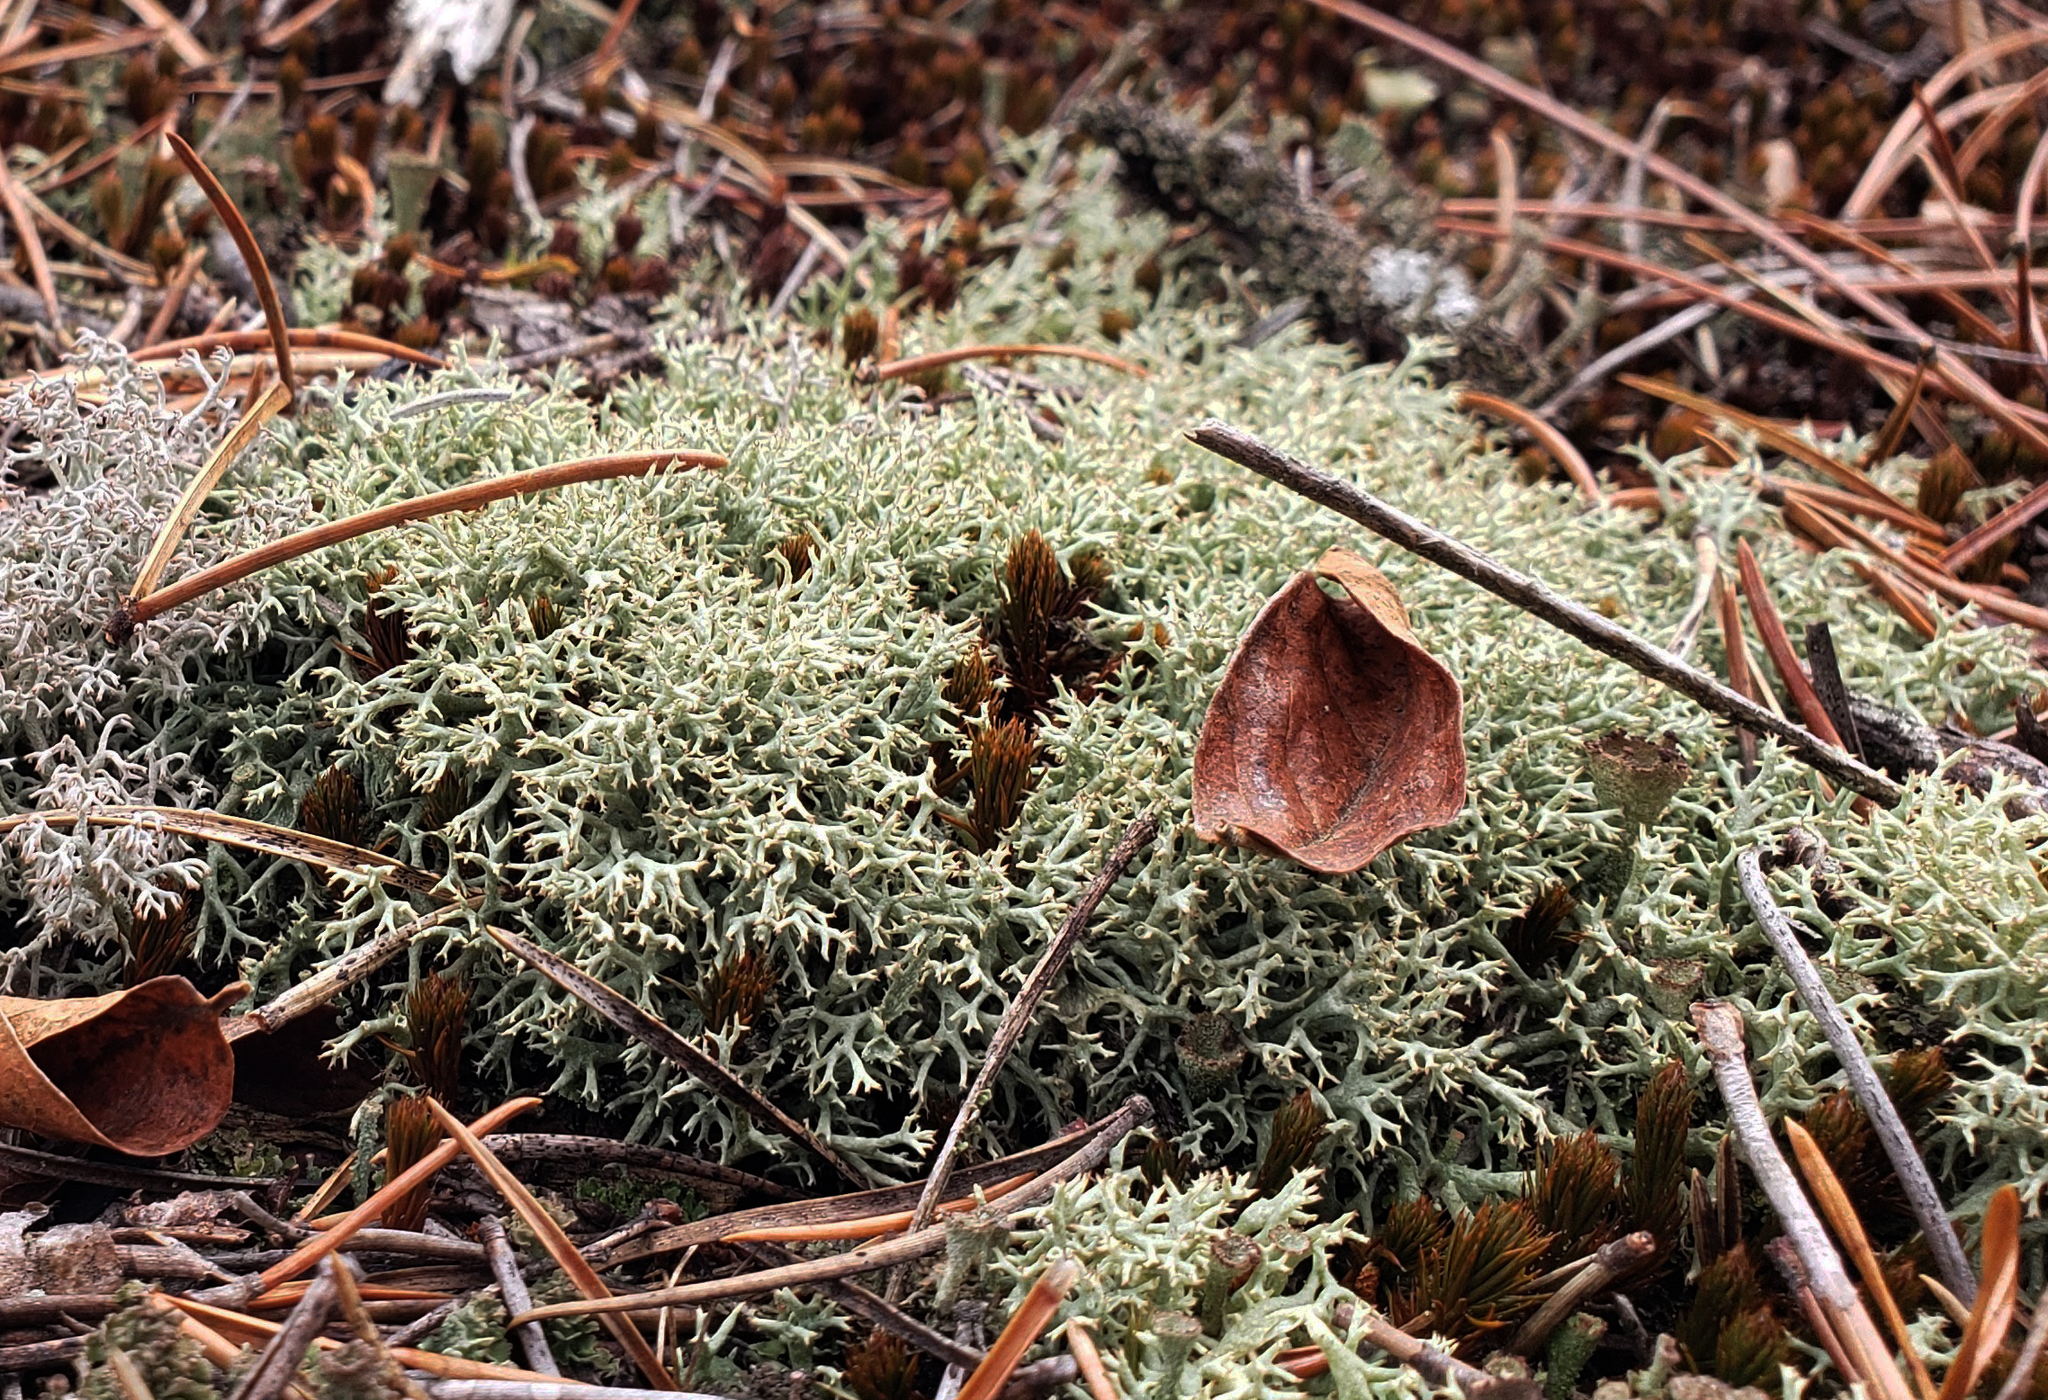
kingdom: Fungi
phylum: Ascomycota
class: Lecanoromycetes
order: Lecanorales
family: Cladoniaceae
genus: Cladonia
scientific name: Cladonia uncialis
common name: Thorn lichen
